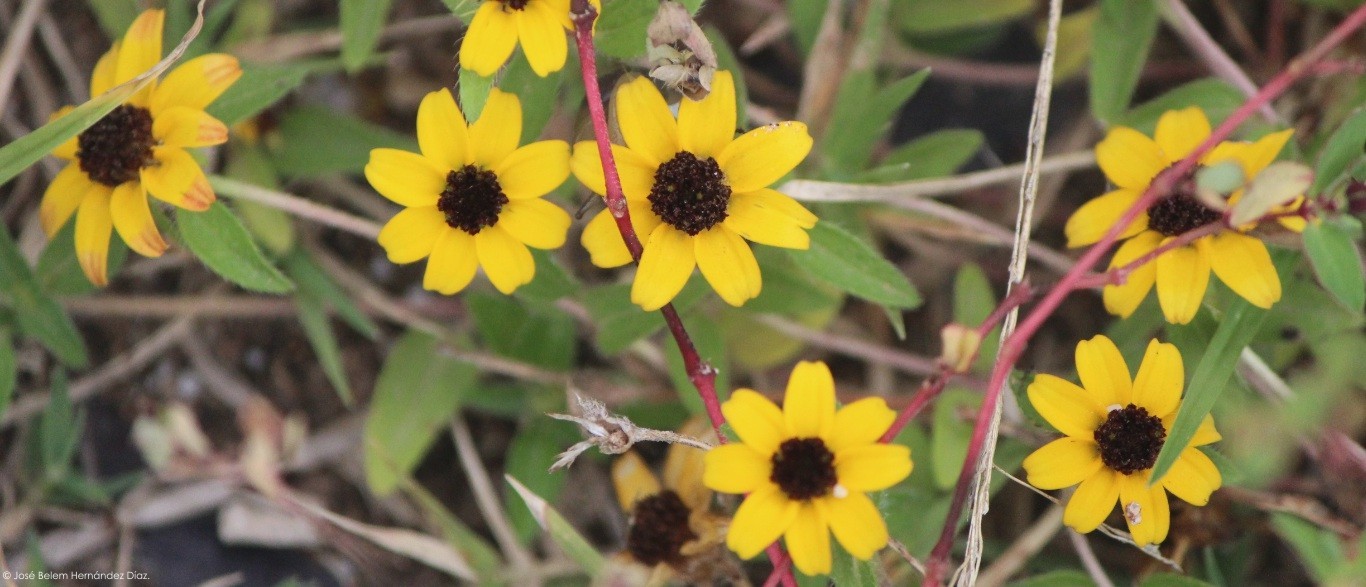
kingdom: Plantae
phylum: Tracheophyta
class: Magnoliopsida
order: Asterales
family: Asteraceae
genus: Sanvitalia
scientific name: Sanvitalia procumbens
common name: Mexican creeping zinnia
